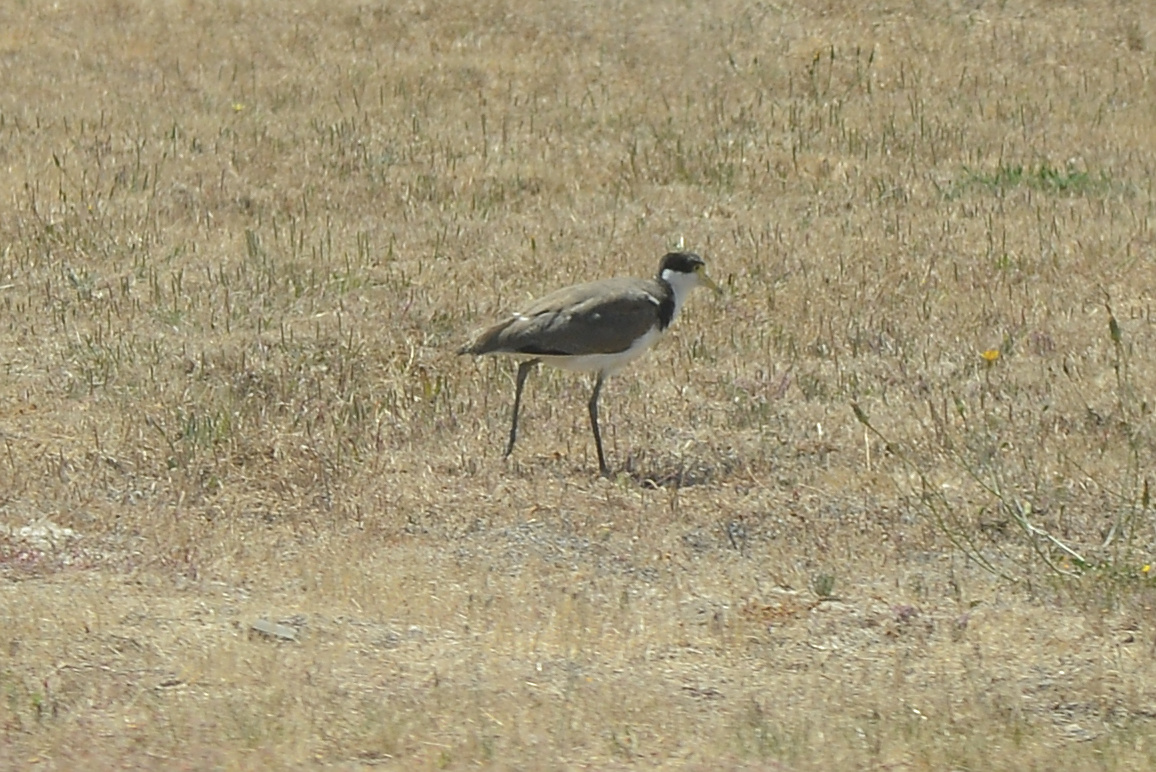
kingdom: Animalia
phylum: Chordata
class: Aves
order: Charadriiformes
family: Charadriidae
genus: Vanellus
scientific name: Vanellus miles
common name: Masked lapwing
